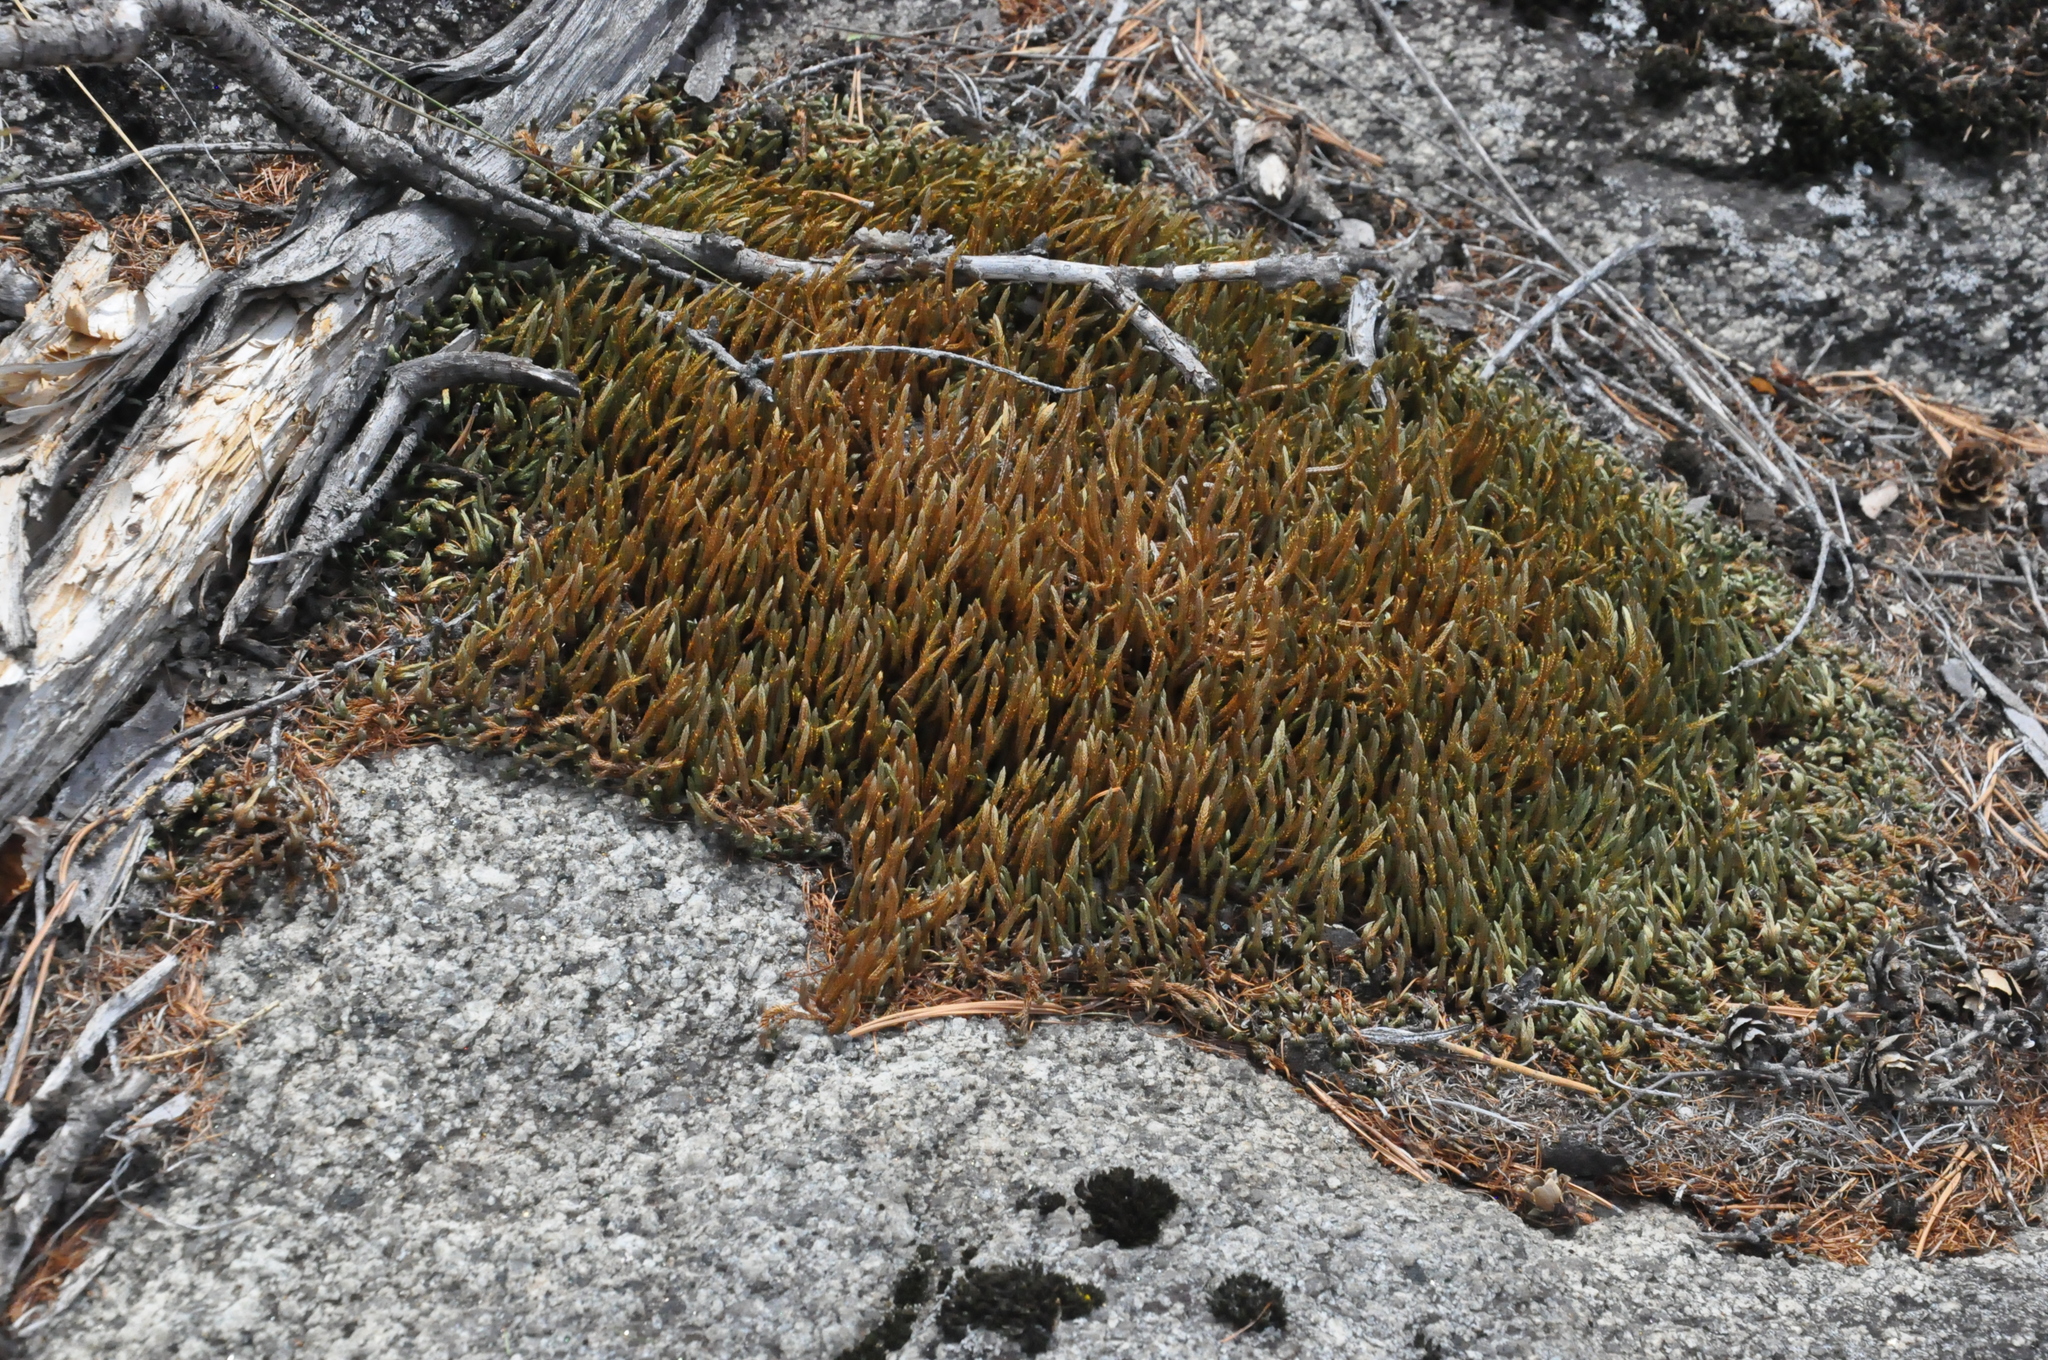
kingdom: Plantae
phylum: Tracheophyta
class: Lycopodiopsida
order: Selaginellales
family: Selaginellaceae
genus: Selaginella
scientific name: Selaginella rupestris
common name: Dwarf spikemoss
